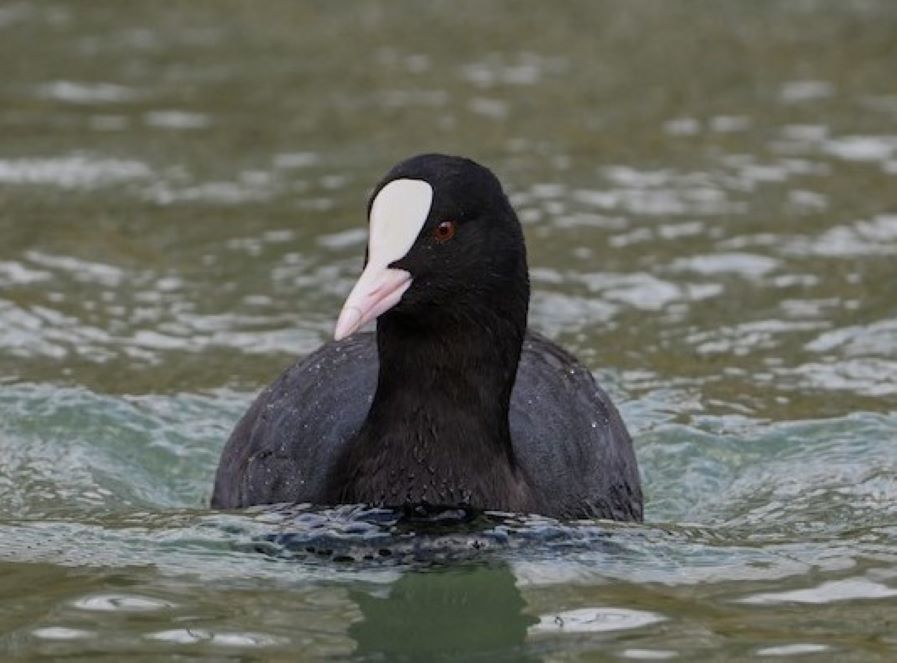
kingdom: Animalia
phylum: Chordata
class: Aves
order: Gruiformes
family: Rallidae
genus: Fulica
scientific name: Fulica atra
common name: Eurasian coot
